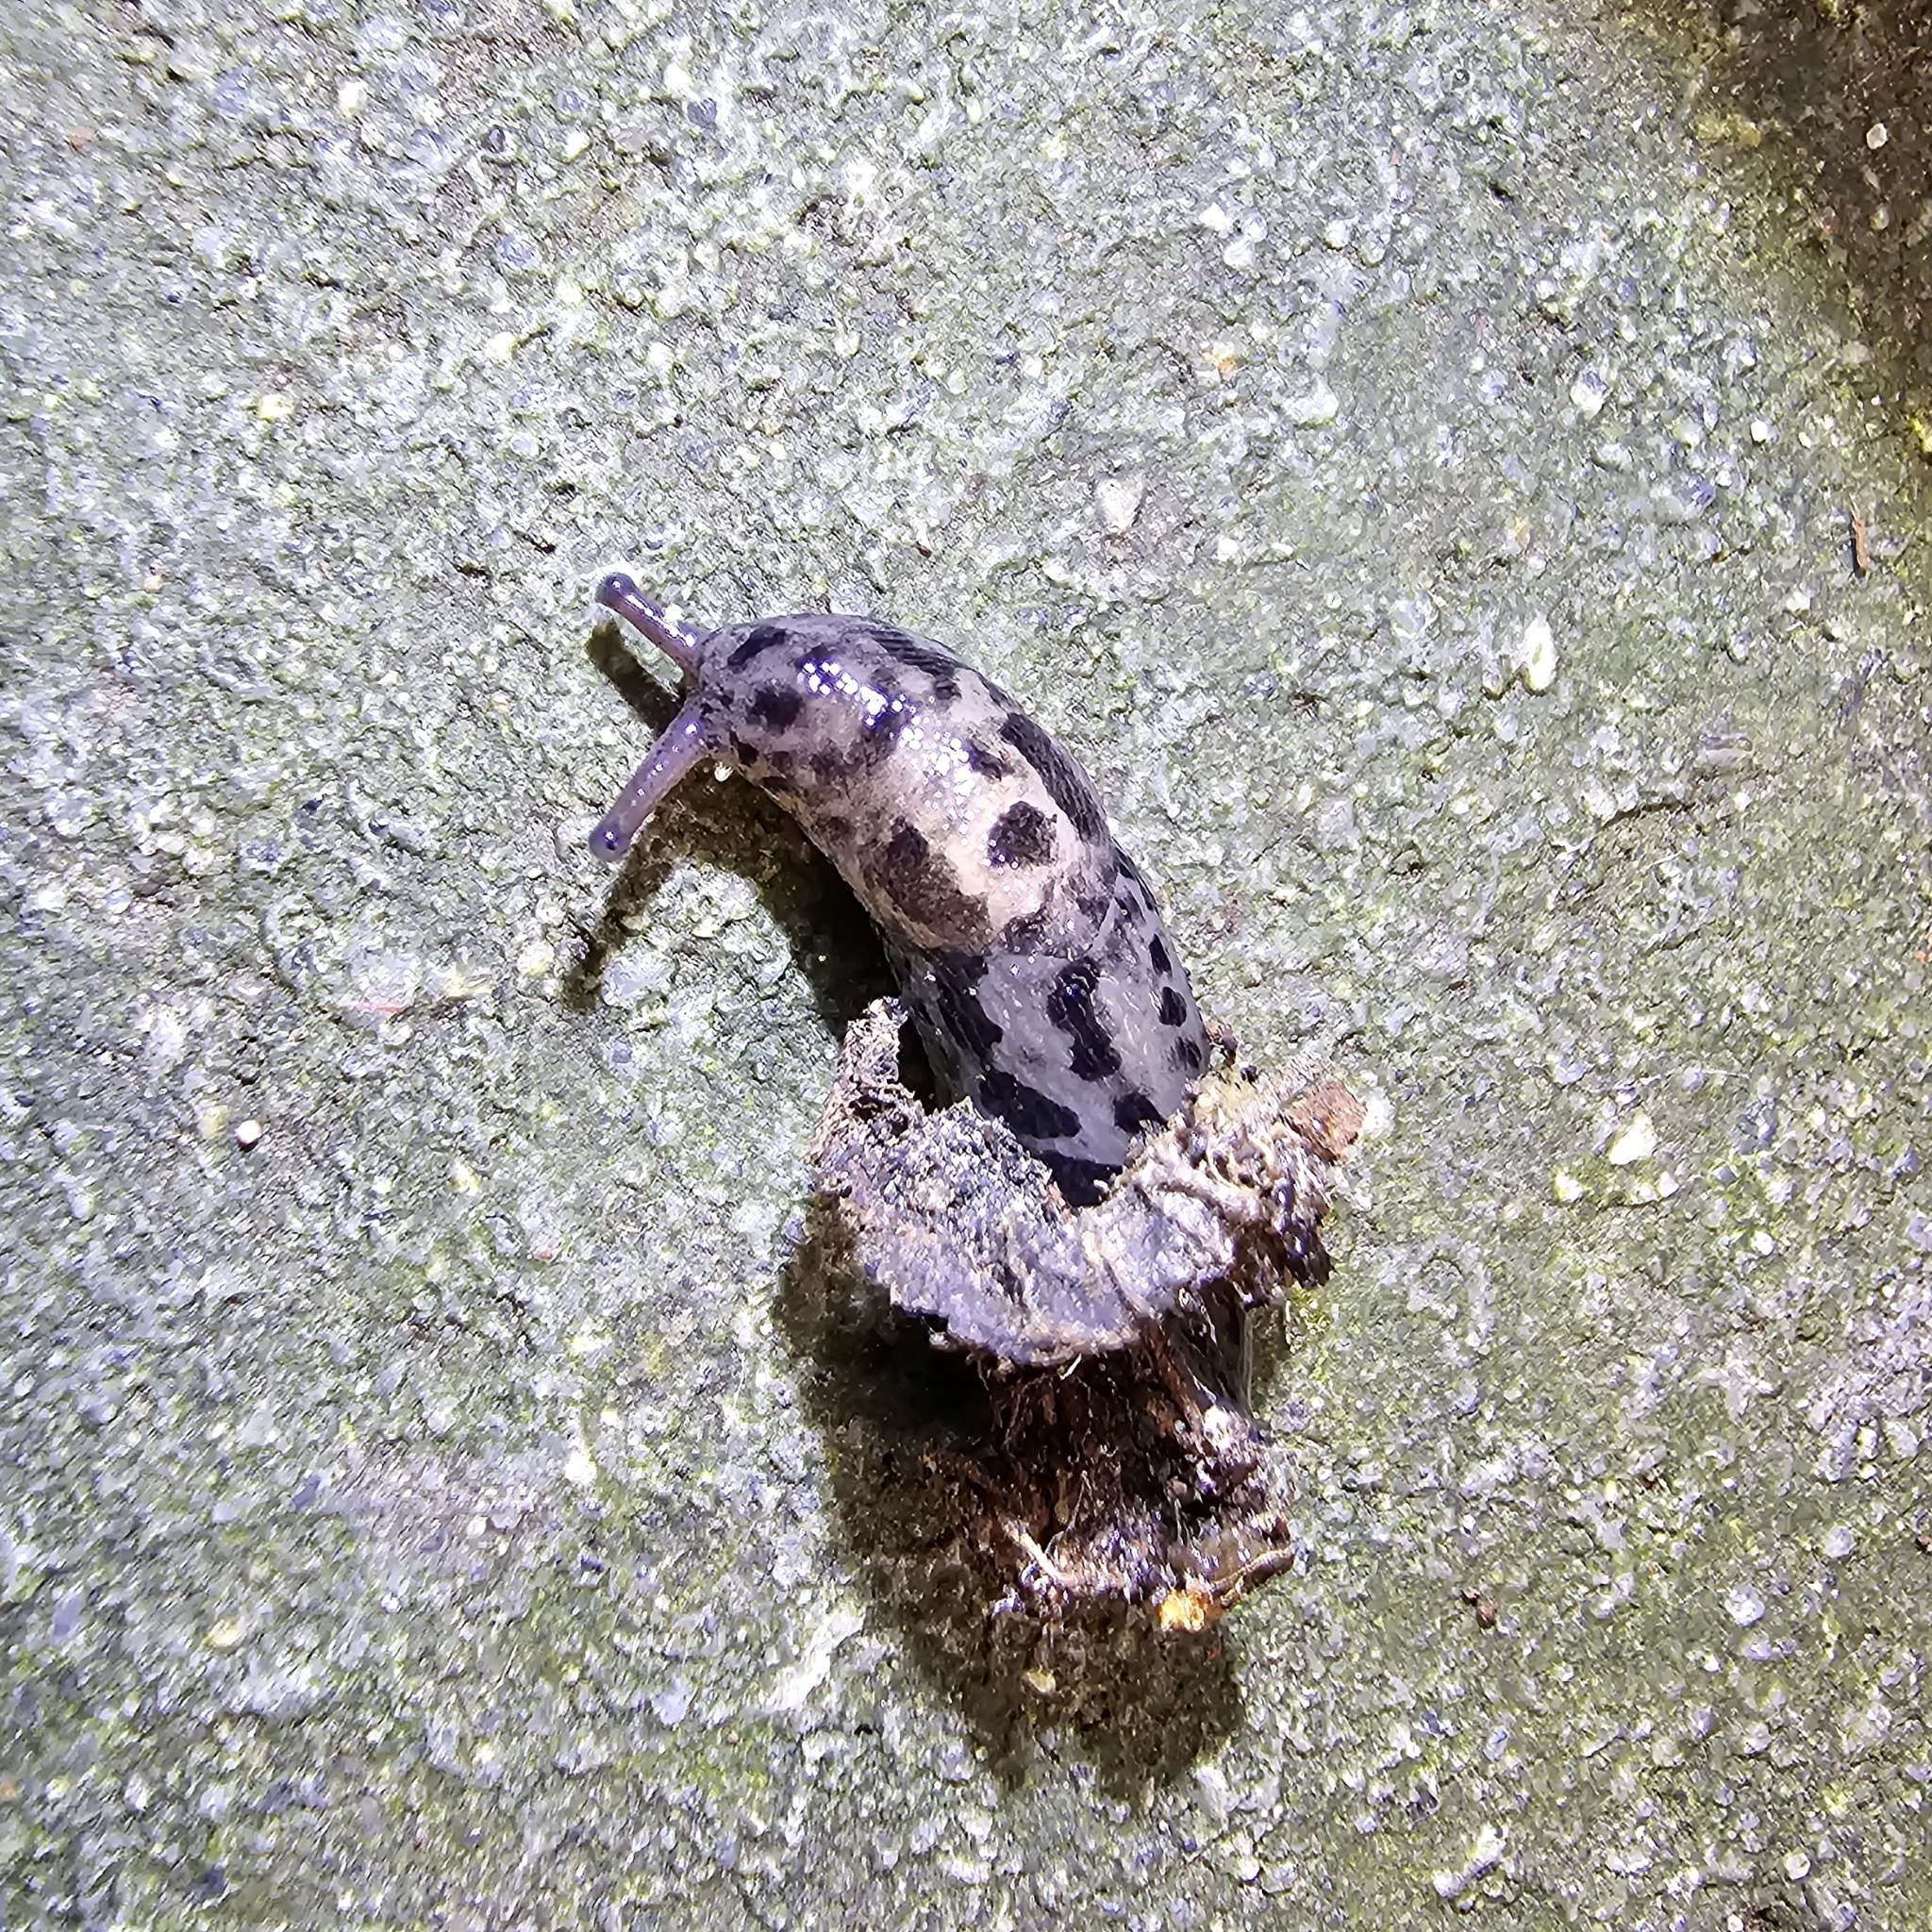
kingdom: Animalia
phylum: Mollusca
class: Gastropoda
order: Stylommatophora
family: Limacidae
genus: Limax
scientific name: Limax maximus
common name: Great grey slug
